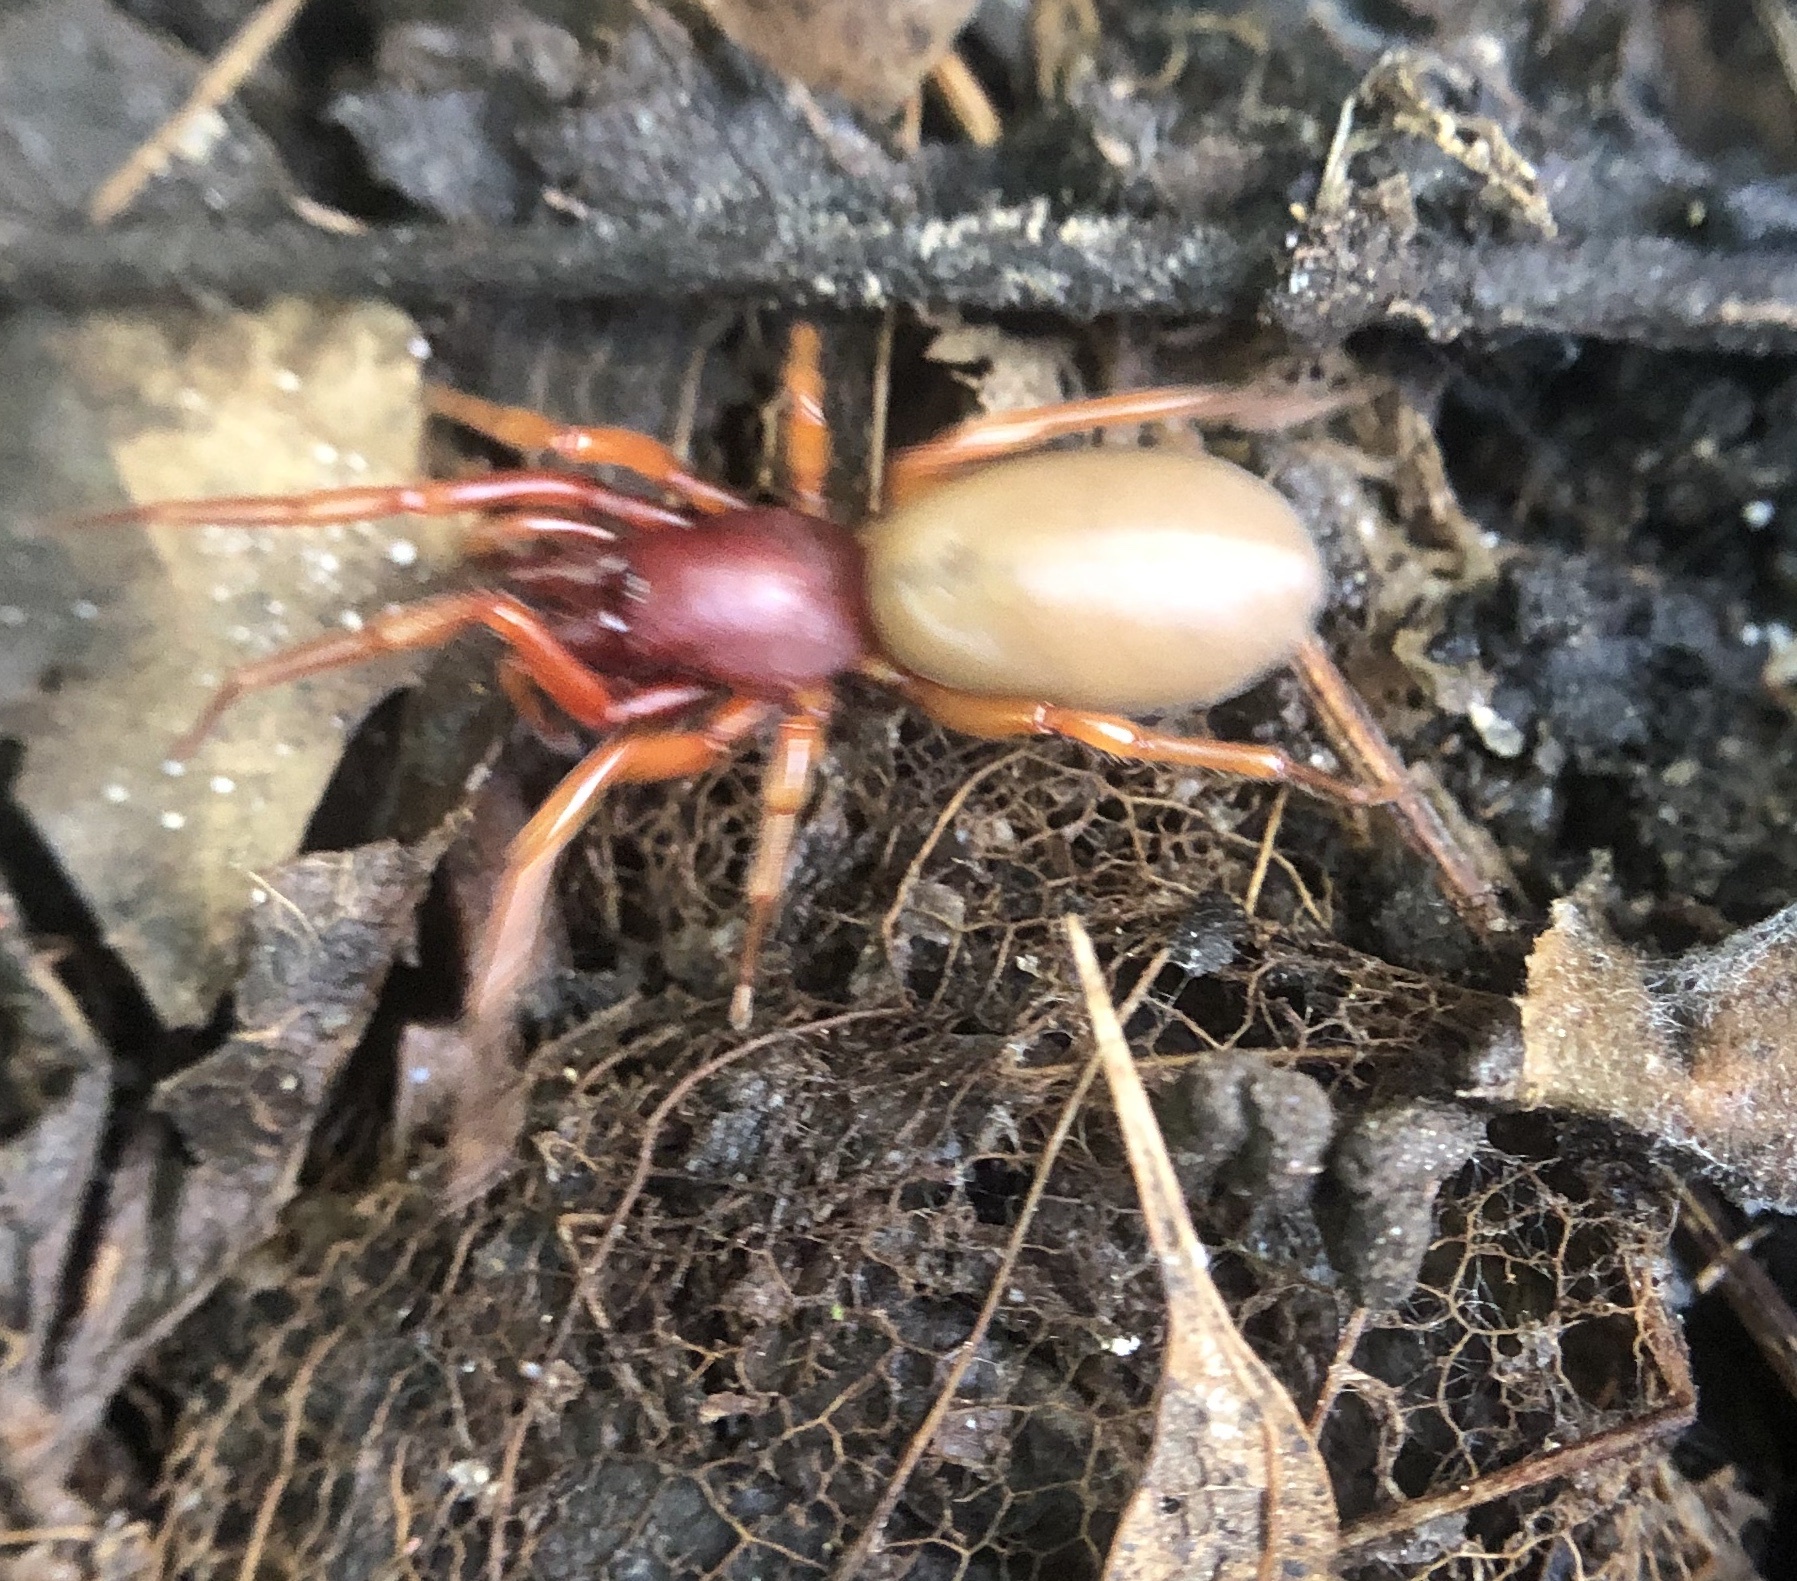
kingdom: Animalia
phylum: Arthropoda
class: Arachnida
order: Araneae
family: Dysderidae
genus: Dysdera
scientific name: Dysdera crocata
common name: Woodlouse spider
